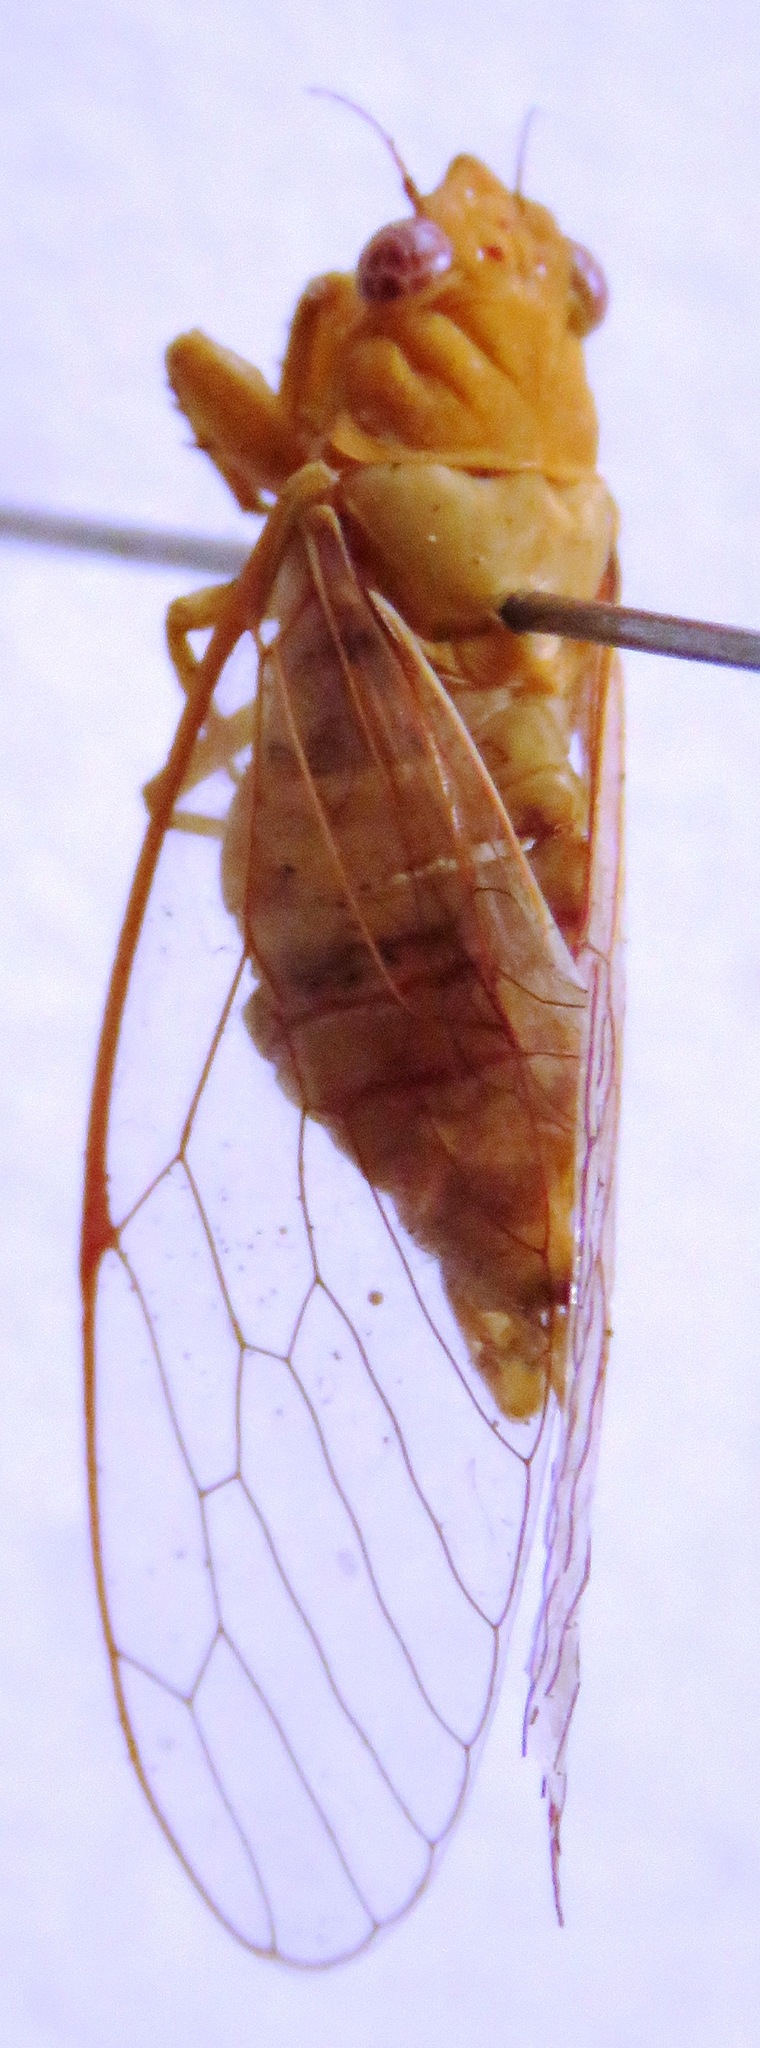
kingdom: Animalia
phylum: Arthropoda
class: Insecta
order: Hemiptera
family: Cicadidae
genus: Conibosa
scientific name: Conibosa occidentis
